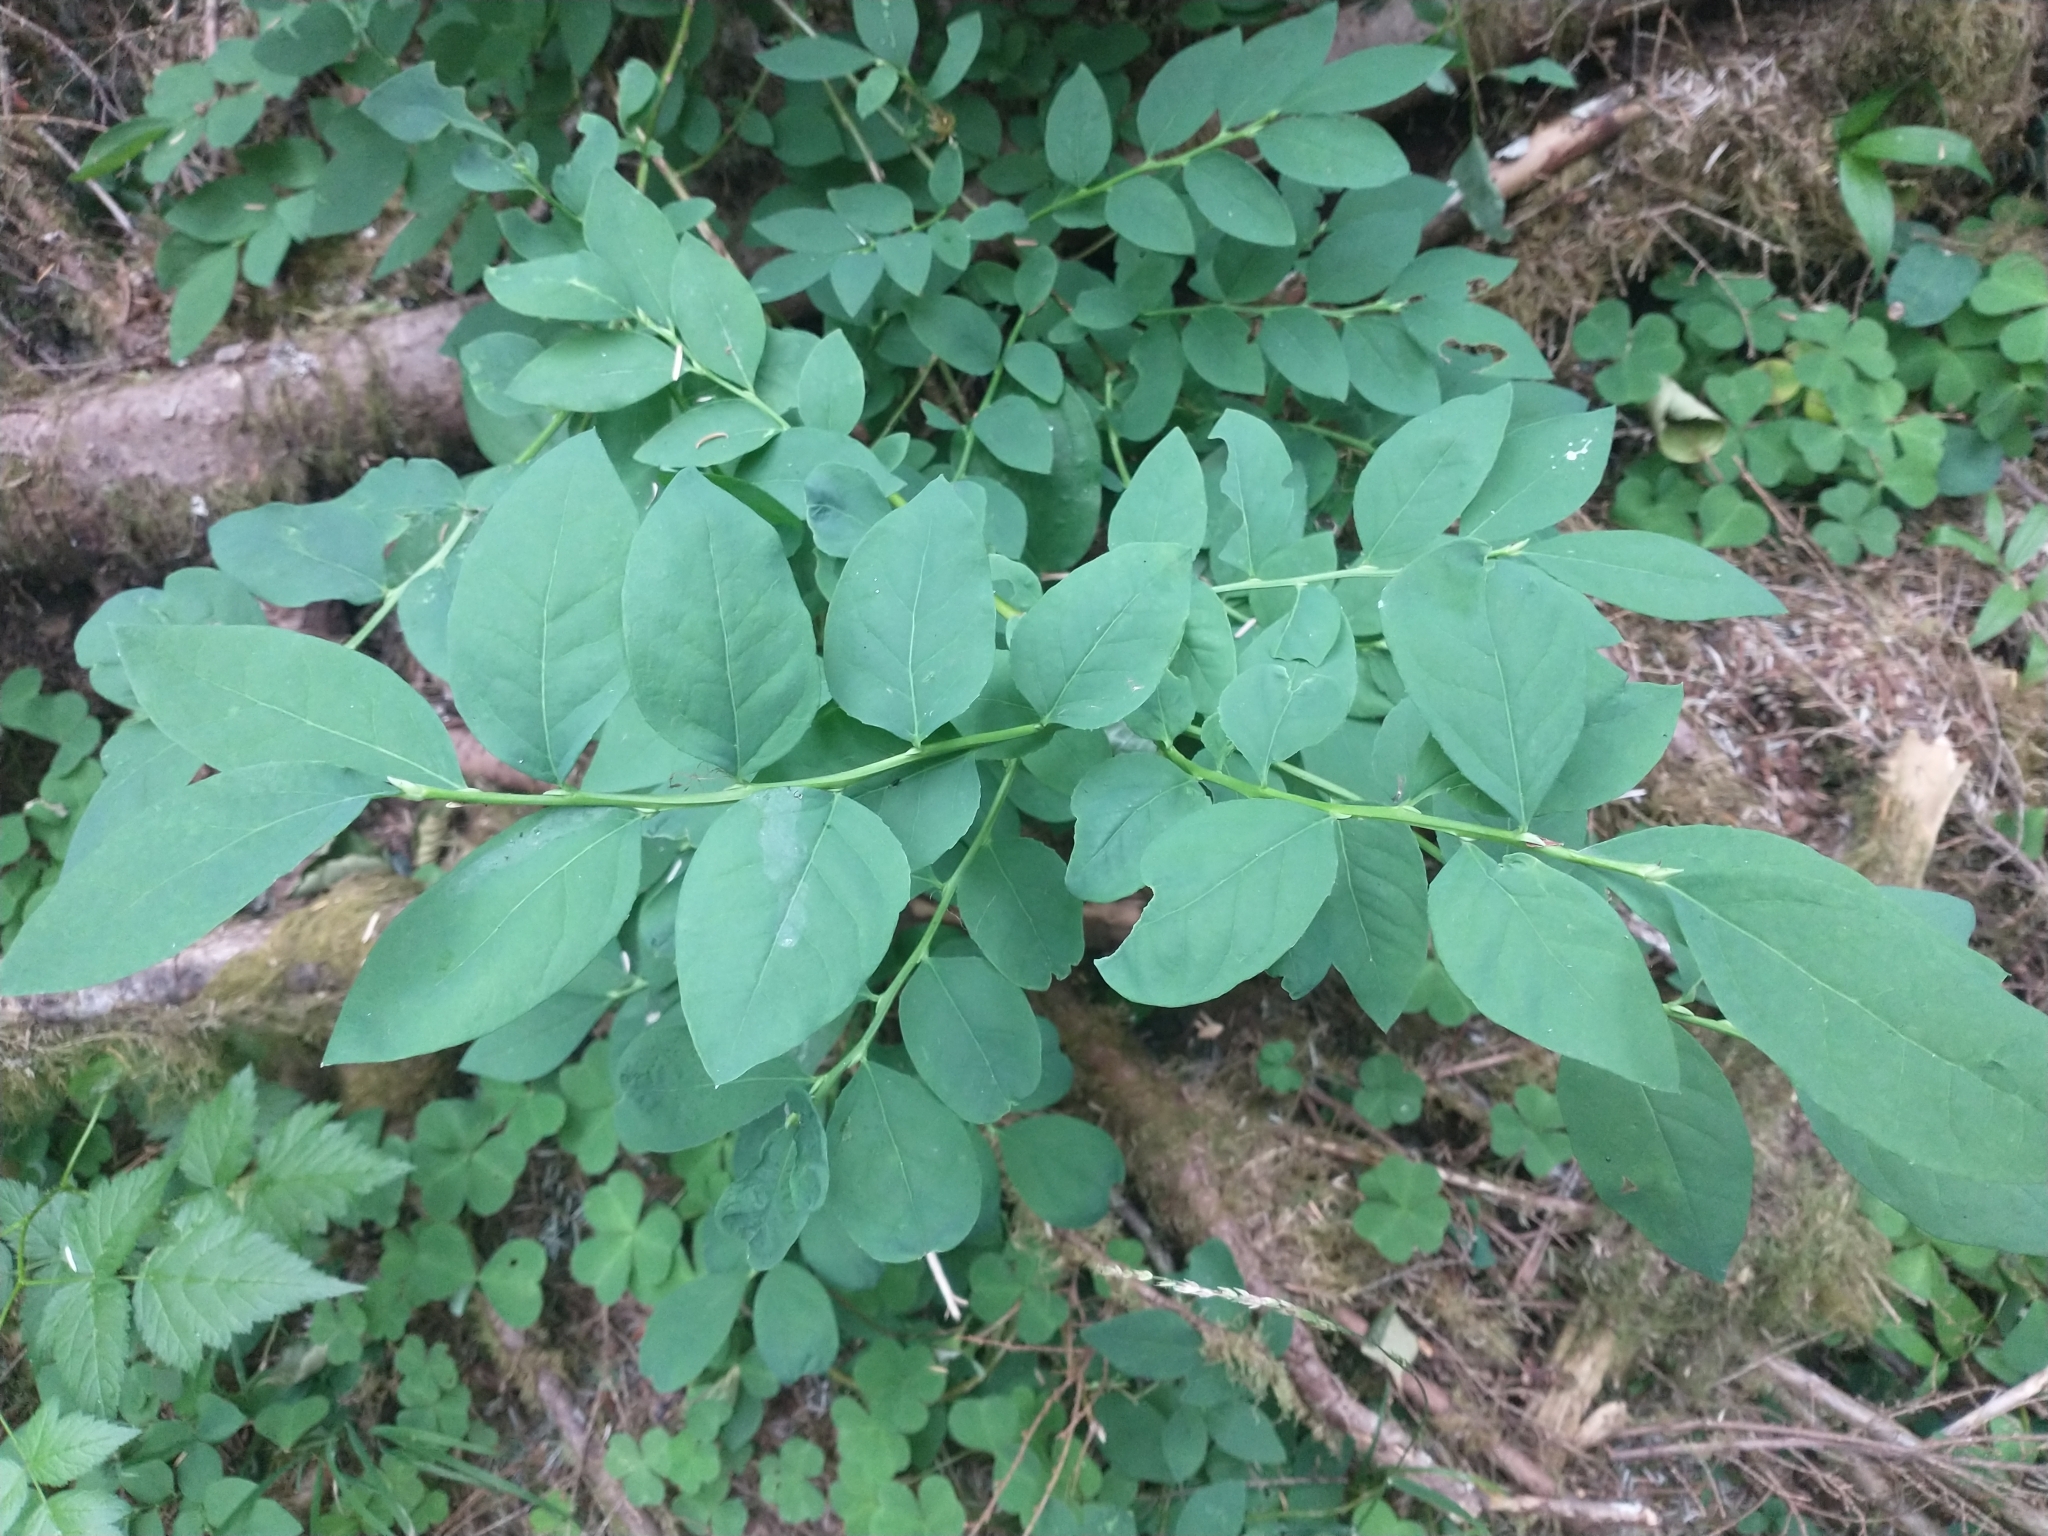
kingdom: Plantae
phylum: Tracheophyta
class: Magnoliopsida
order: Ericales
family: Ericaceae
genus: Vaccinium
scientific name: Vaccinium ovalifolium
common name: Early blueberry
